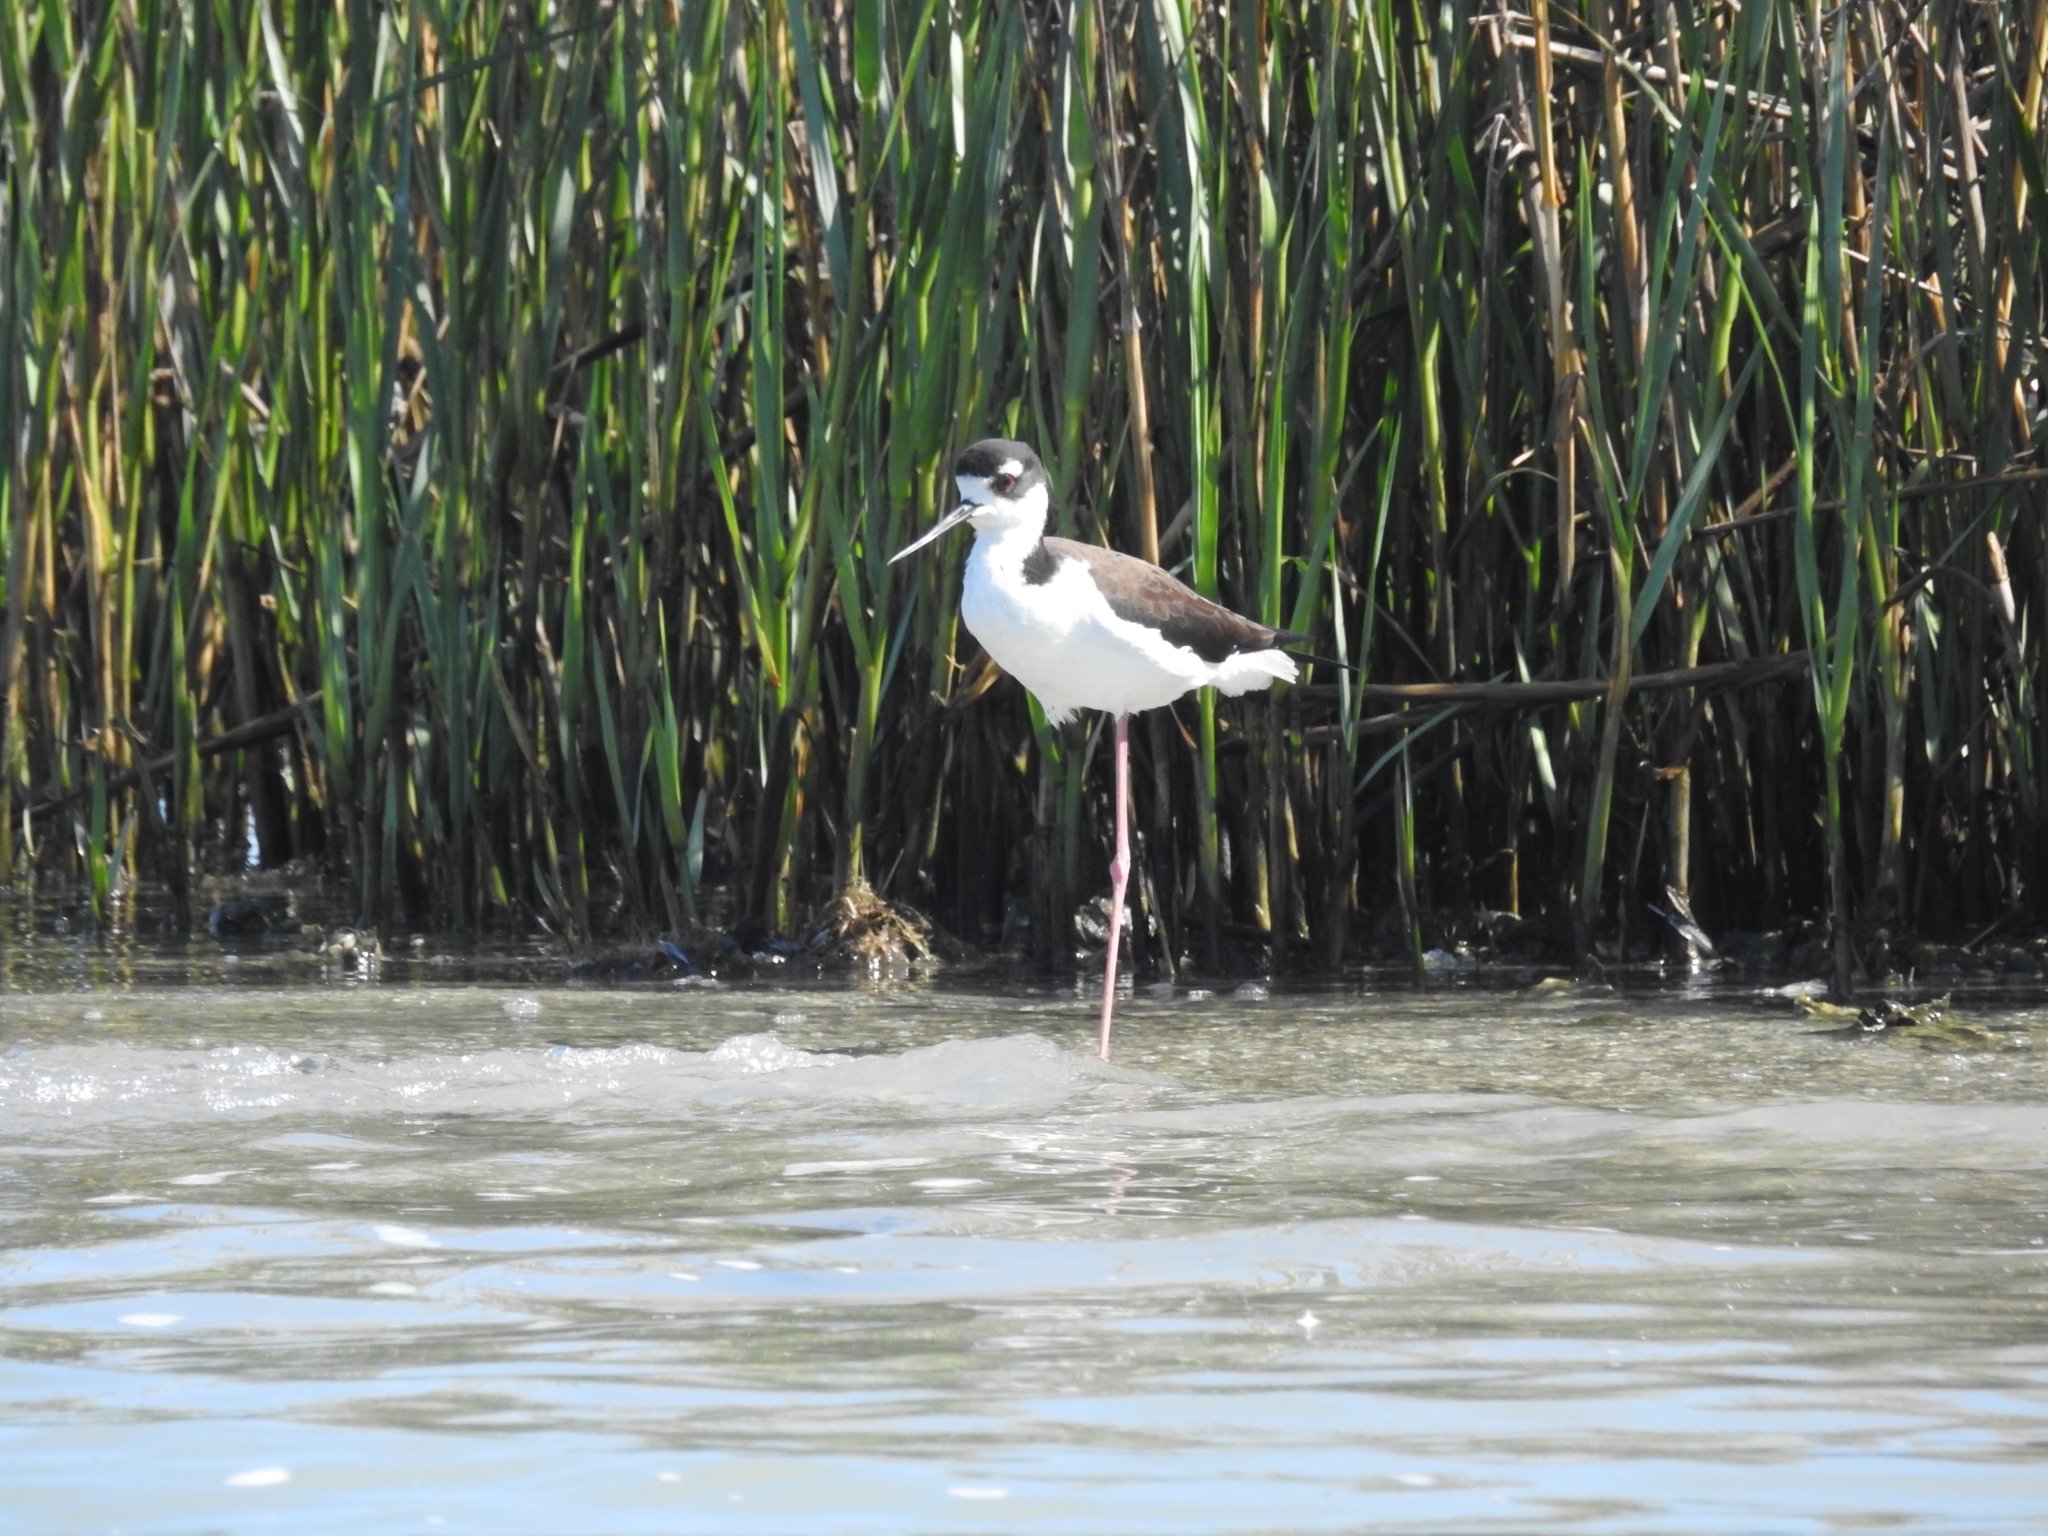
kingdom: Animalia
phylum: Chordata
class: Aves
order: Charadriiformes
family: Recurvirostridae
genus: Himantopus
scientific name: Himantopus mexicanus
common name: Black-necked stilt
